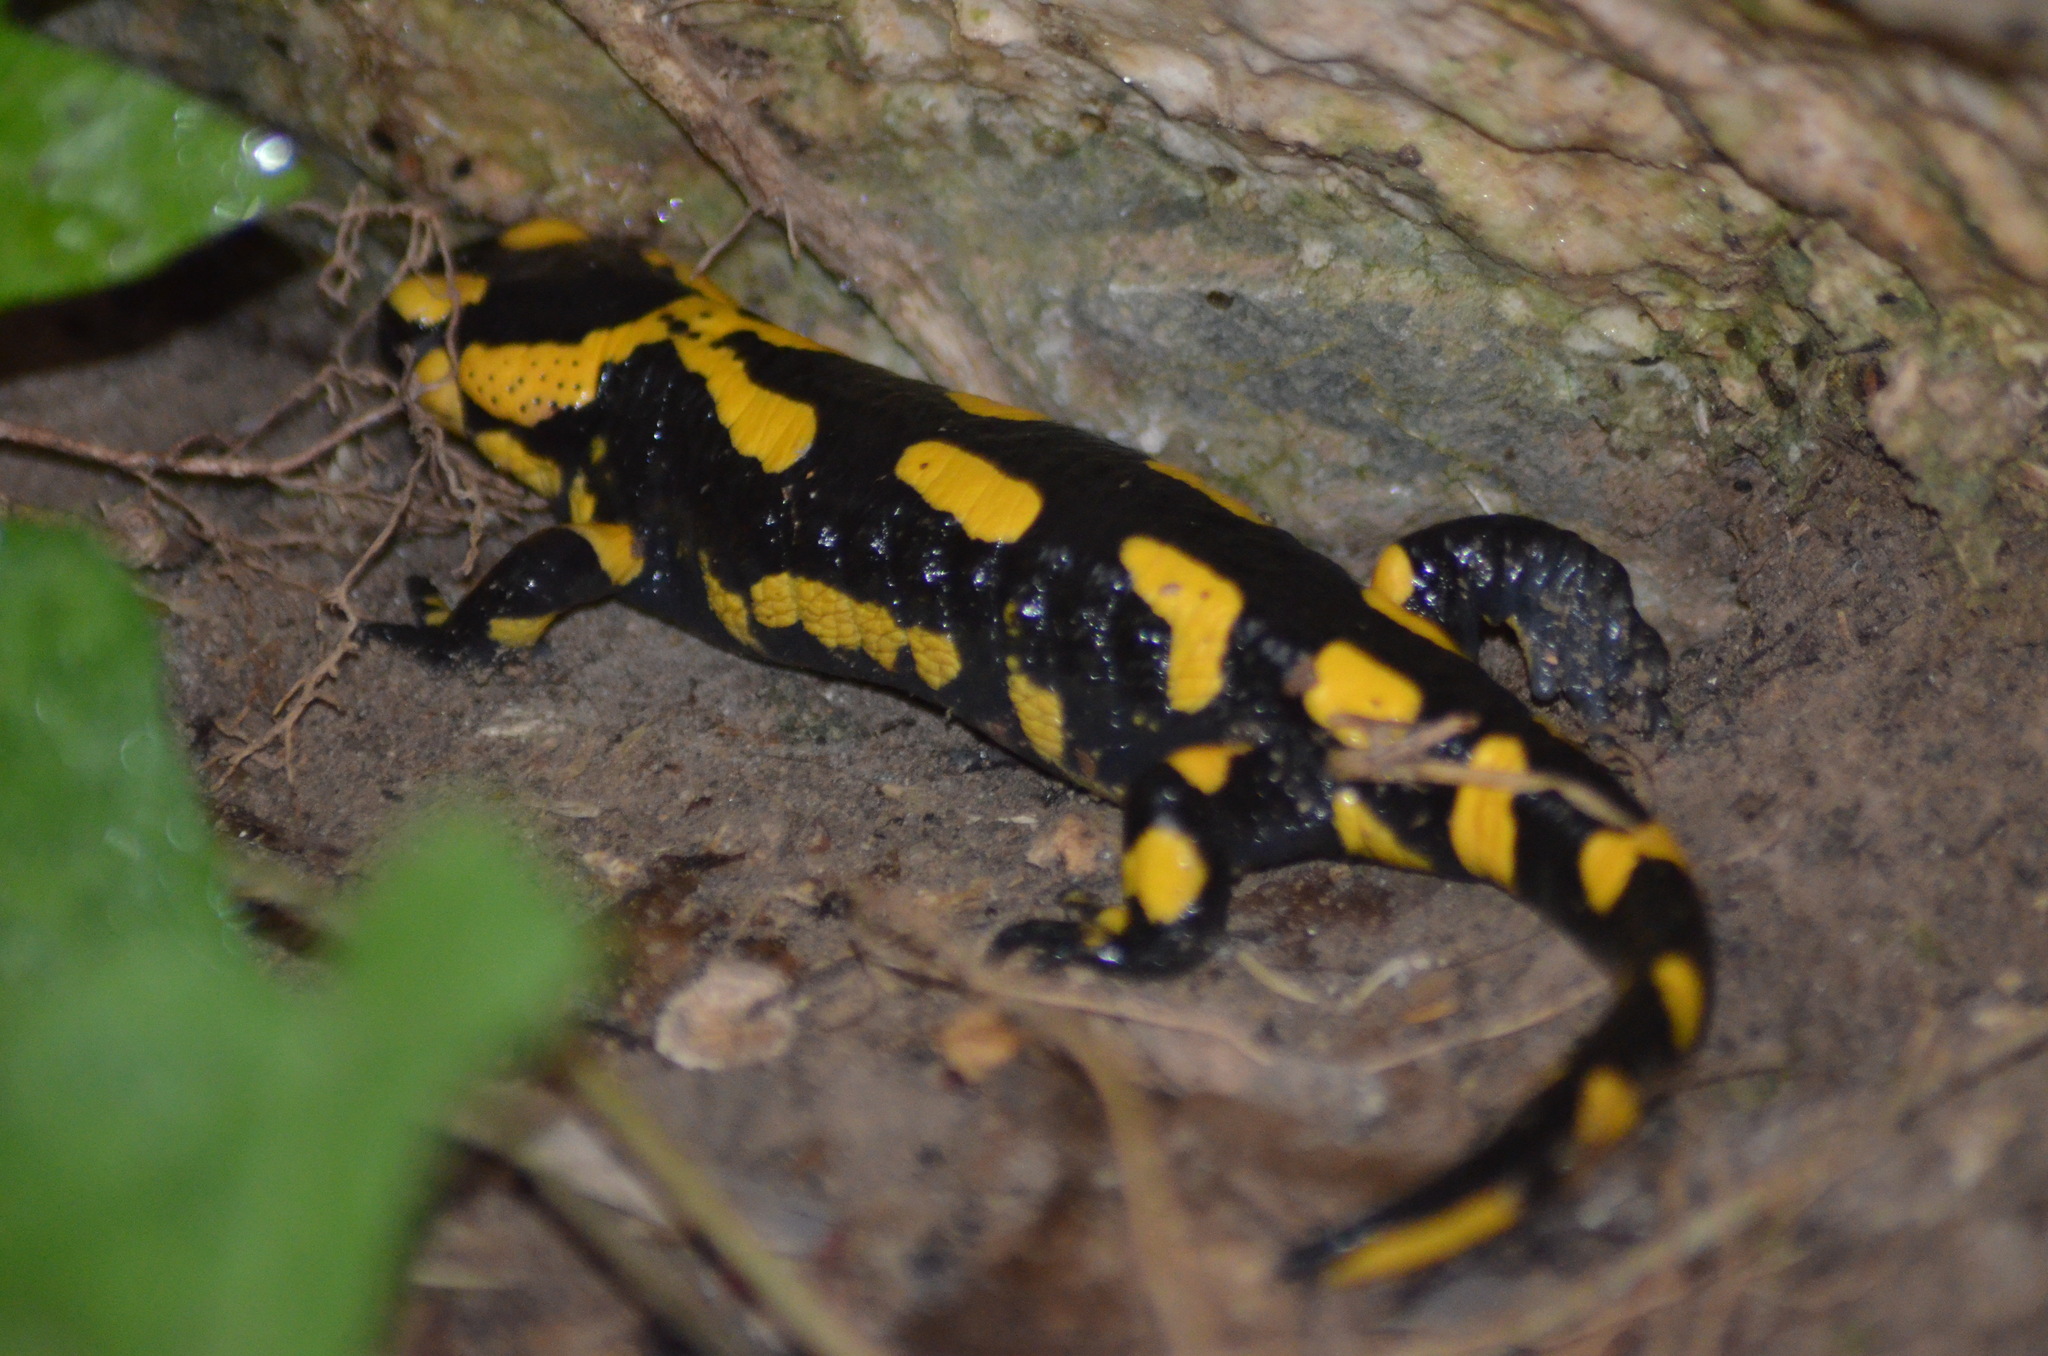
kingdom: Animalia
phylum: Chordata
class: Amphibia
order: Caudata
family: Salamandridae
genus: Salamandra
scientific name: Salamandra salamandra
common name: Fire salamander
